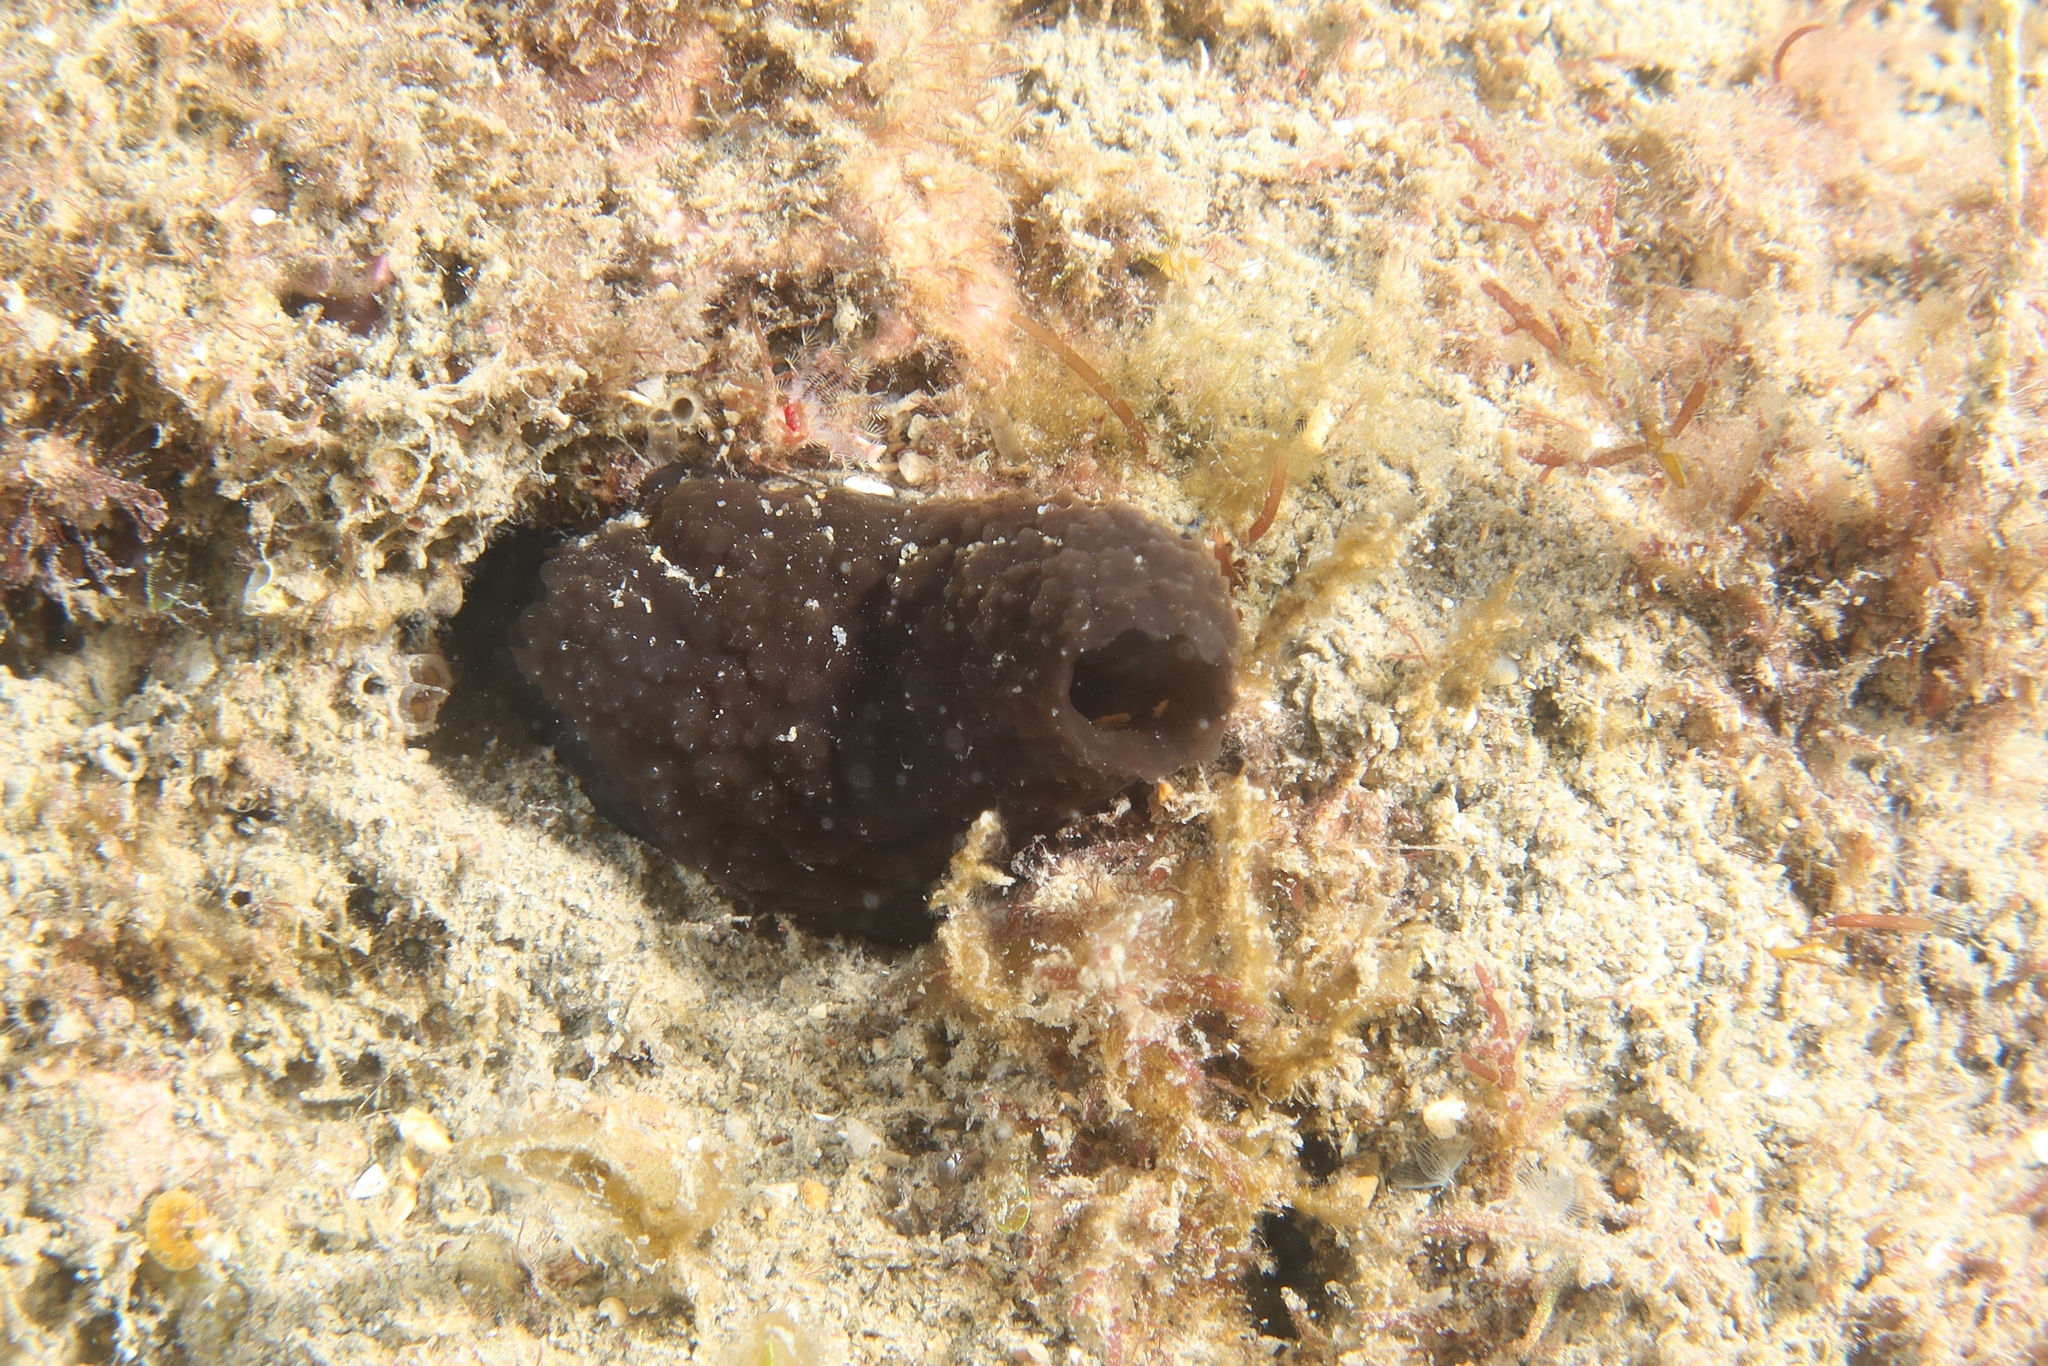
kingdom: Animalia
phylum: Chordata
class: Ascidiacea
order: Phlebobranchia
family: Ascidiidae
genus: Phallusia
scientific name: Phallusia fumigata
